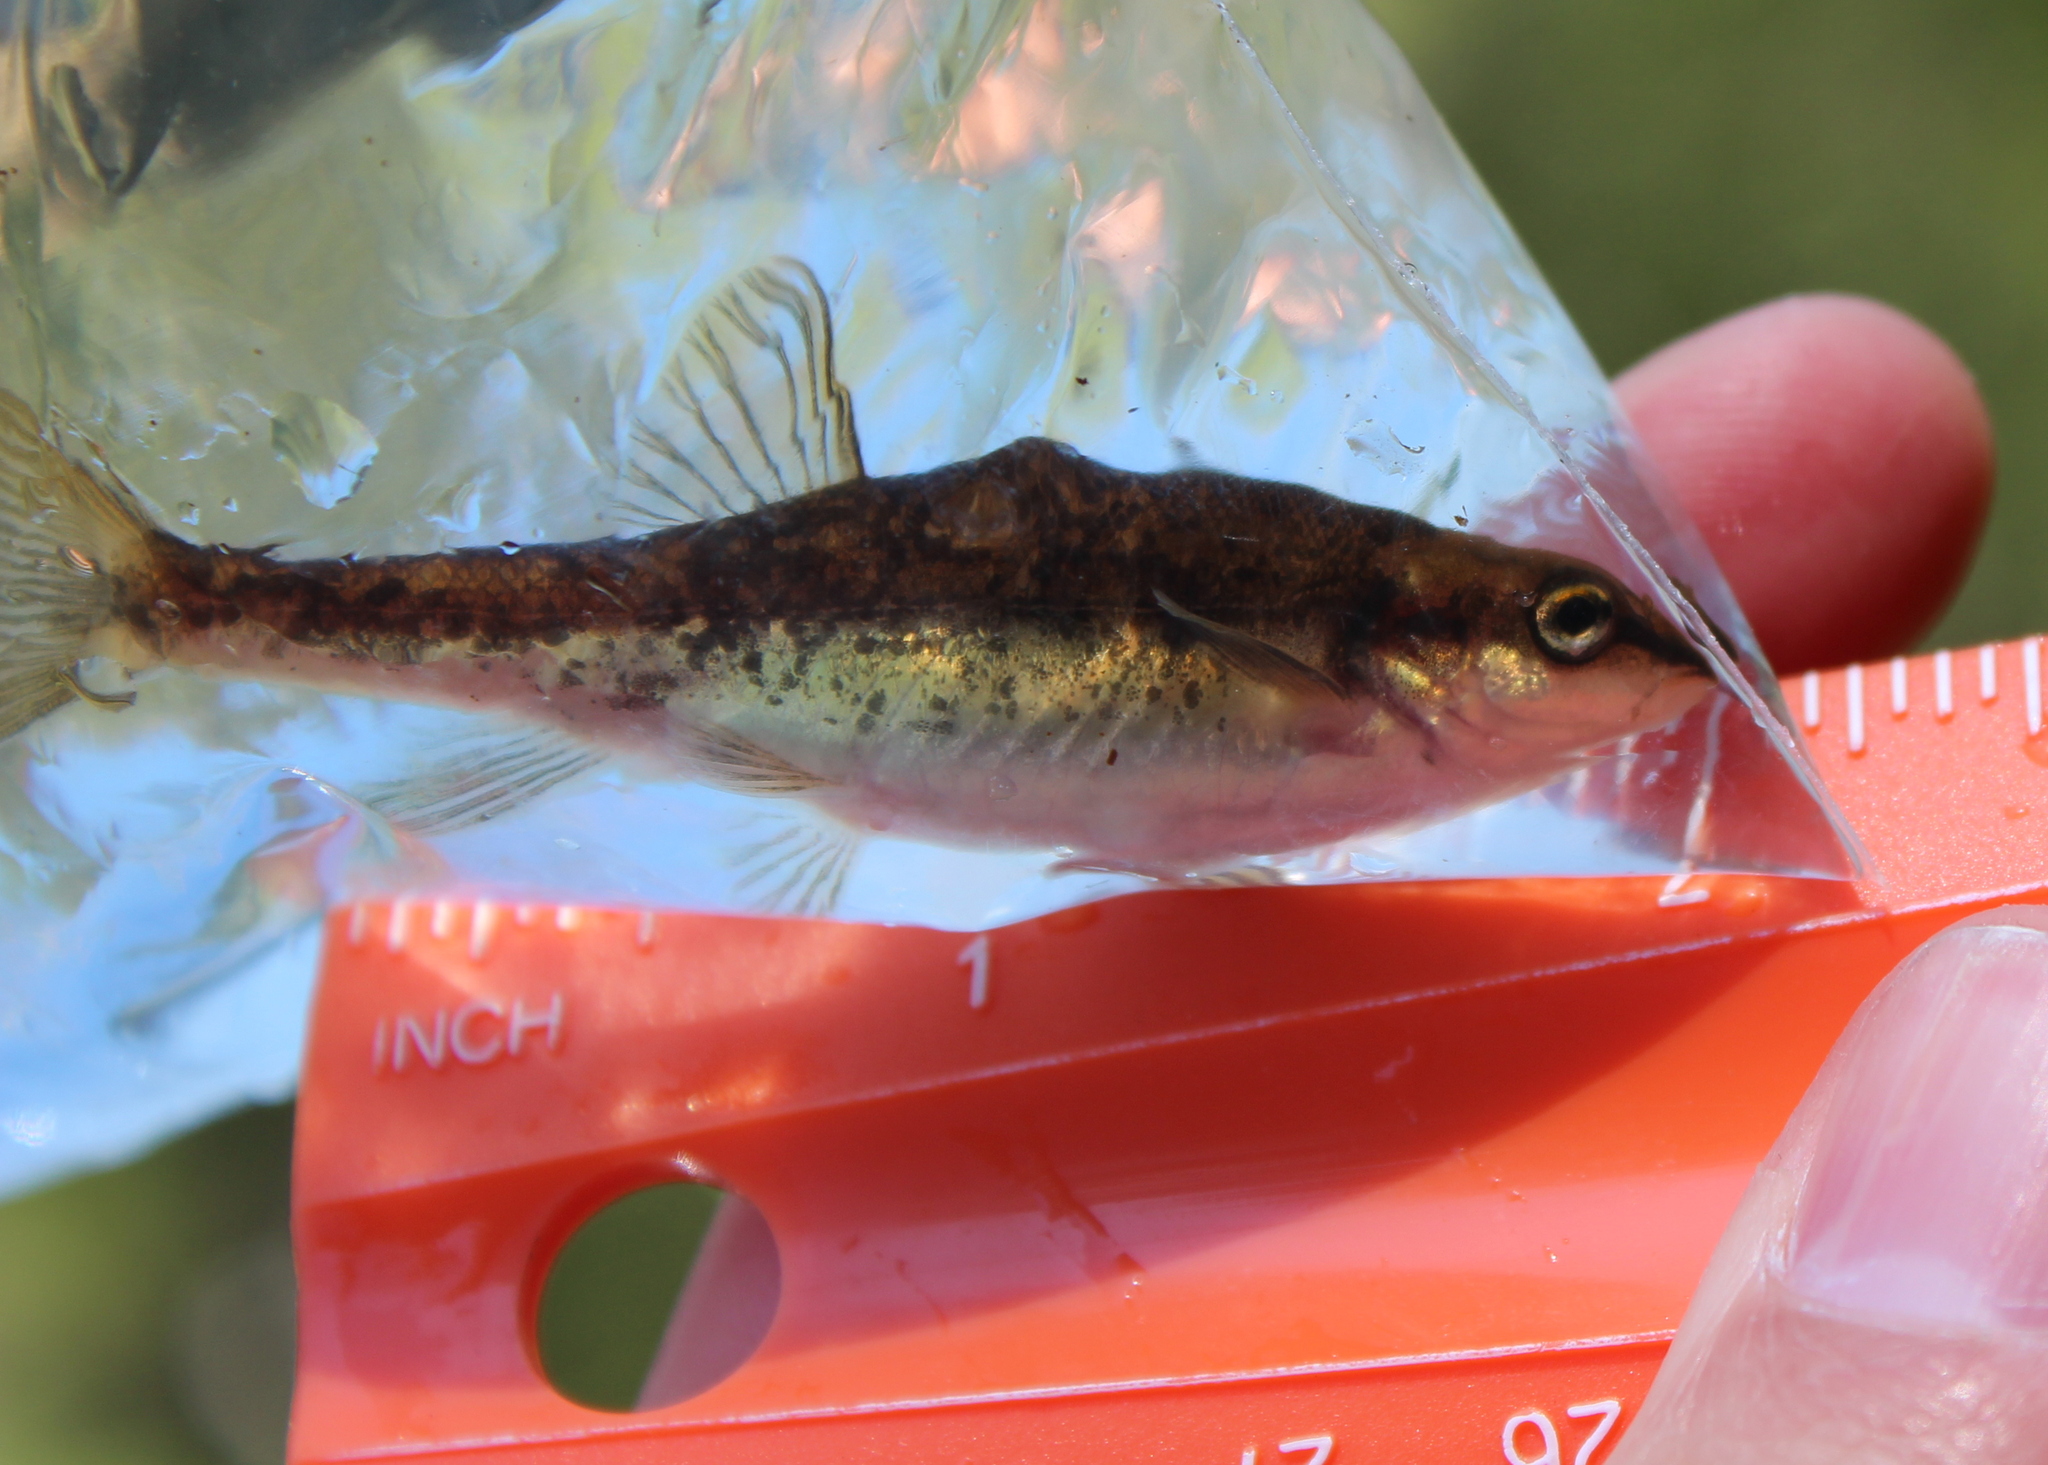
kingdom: Animalia
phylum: Chordata
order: Cypriniformes
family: Cyprinidae
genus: Rhinichthys
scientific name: Rhinichthys atratulus
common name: Eastern blacknose dace
